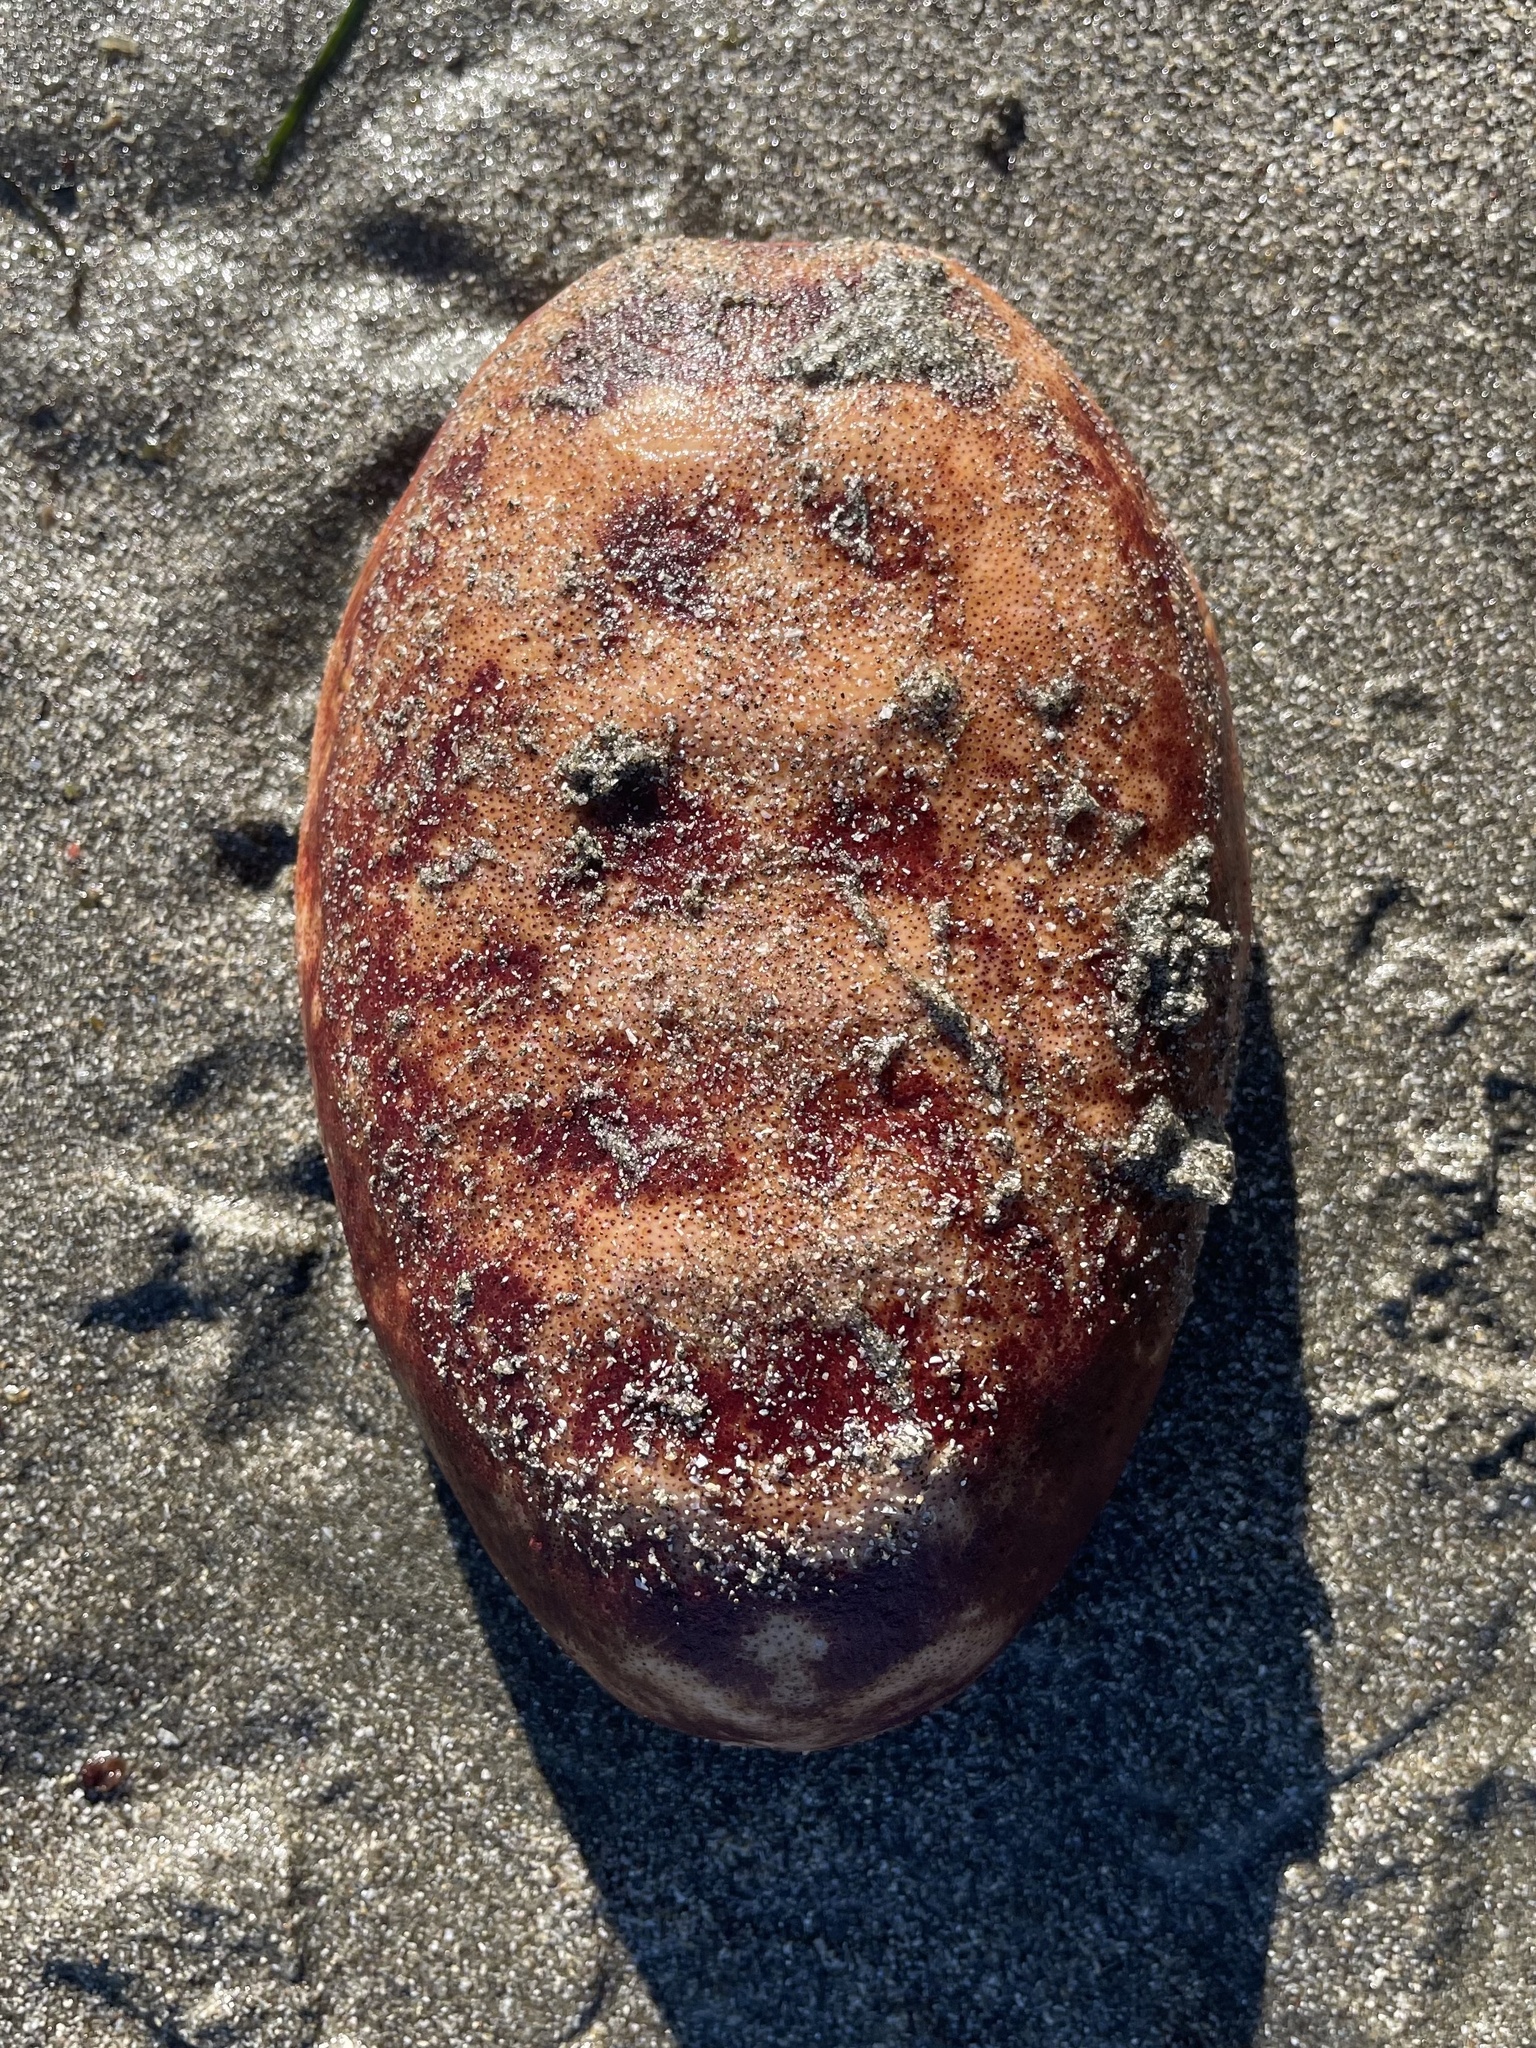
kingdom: Animalia
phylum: Mollusca
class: Polyplacophora
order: Chitonida
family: Acanthochitonidae
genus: Cryptochiton
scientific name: Cryptochiton stelleri
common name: Giant pacific chiton
